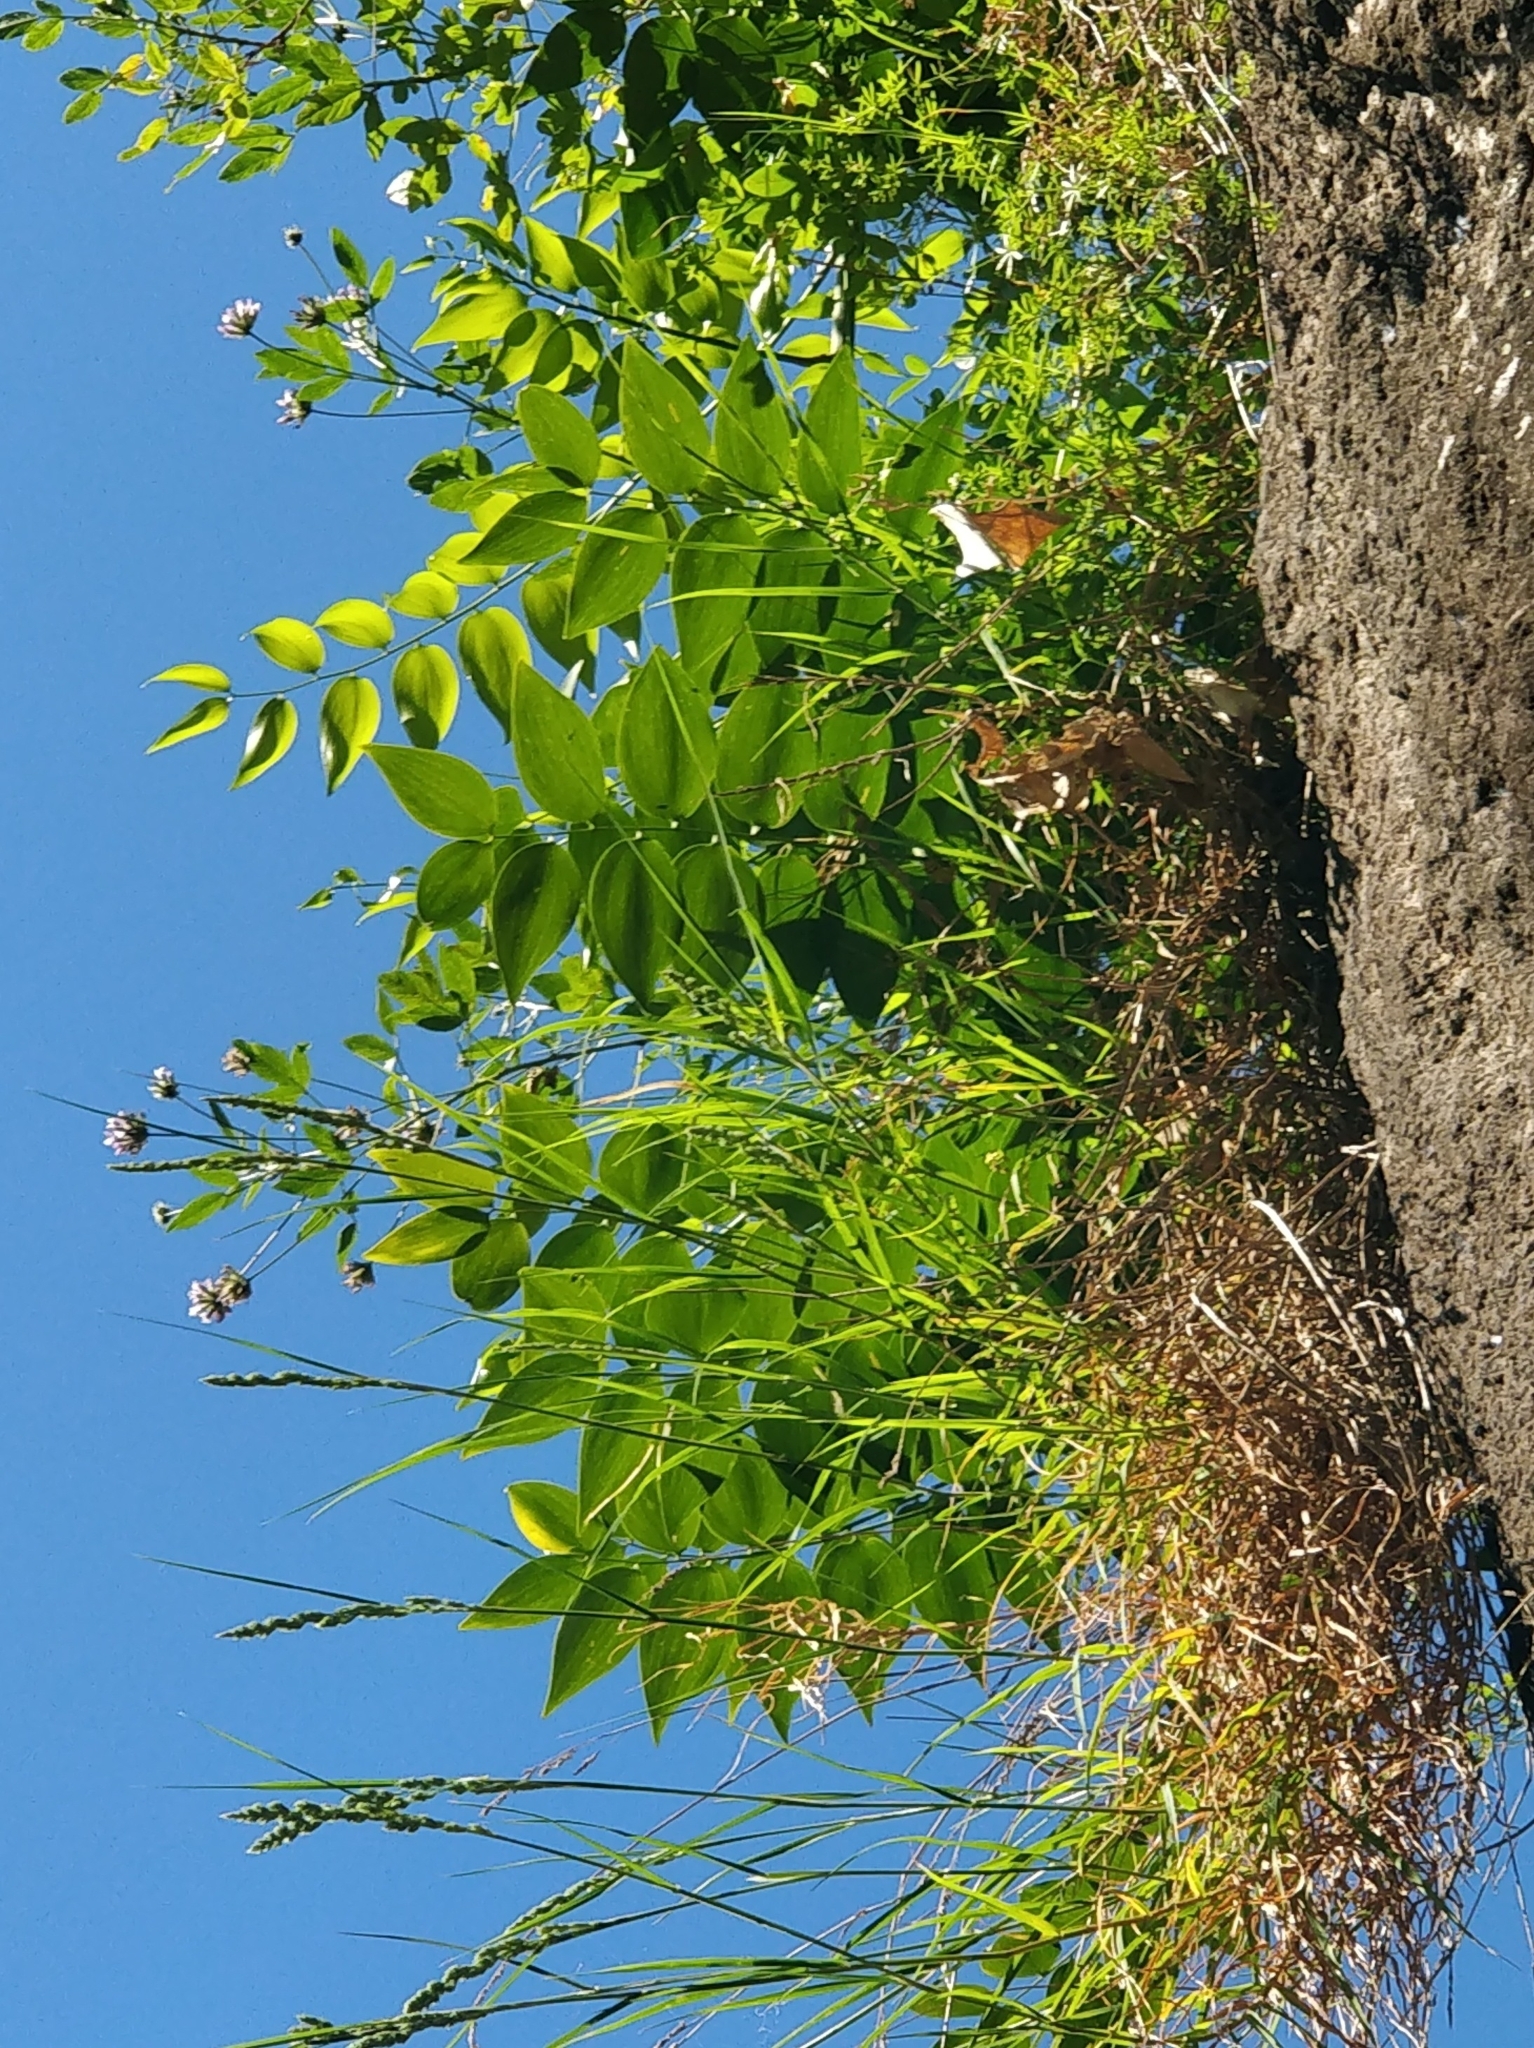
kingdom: Plantae
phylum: Tracheophyta
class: Liliopsida
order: Asparagales
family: Asparagaceae
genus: Semele
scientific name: Semele androgyna
